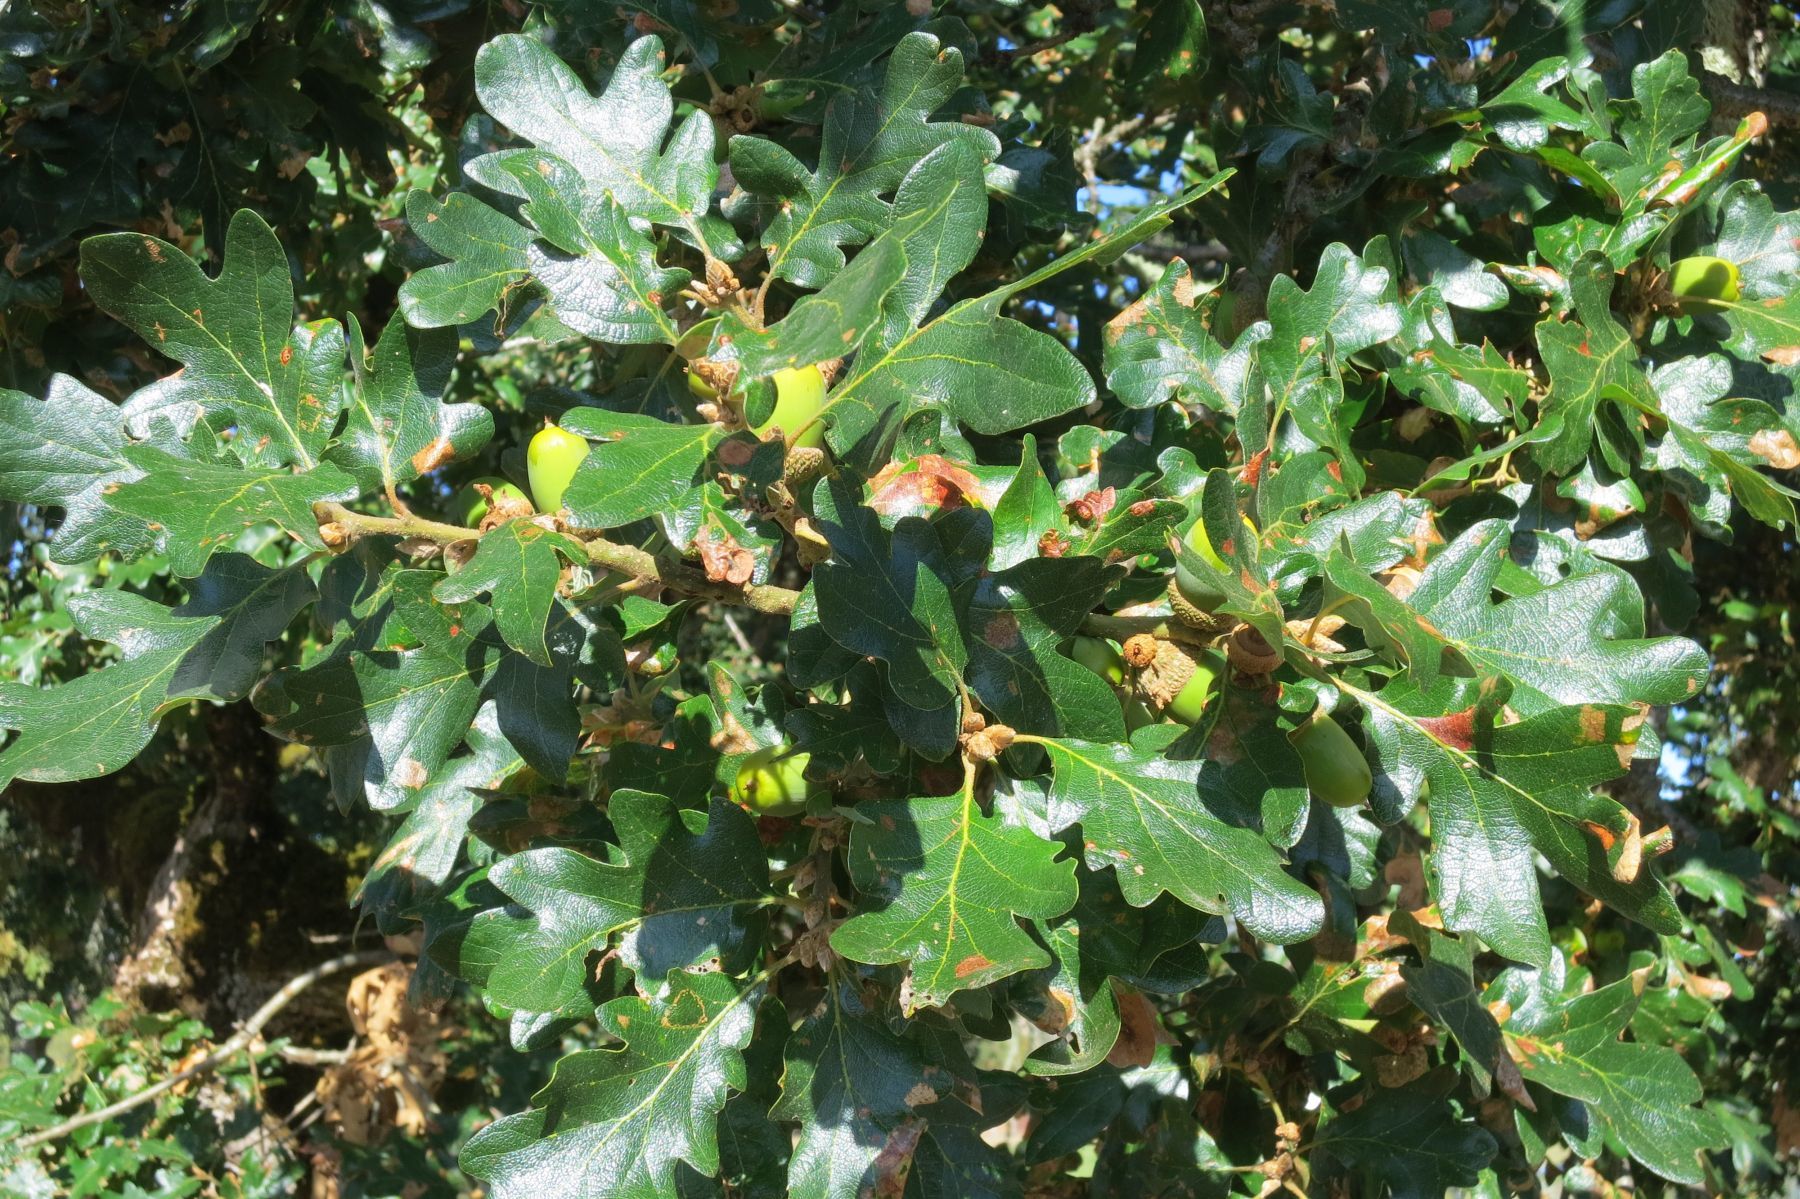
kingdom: Plantae
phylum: Tracheophyta
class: Magnoliopsida
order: Fagales
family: Fagaceae
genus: Quercus
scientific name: Quercus garryana
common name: Garry oak
